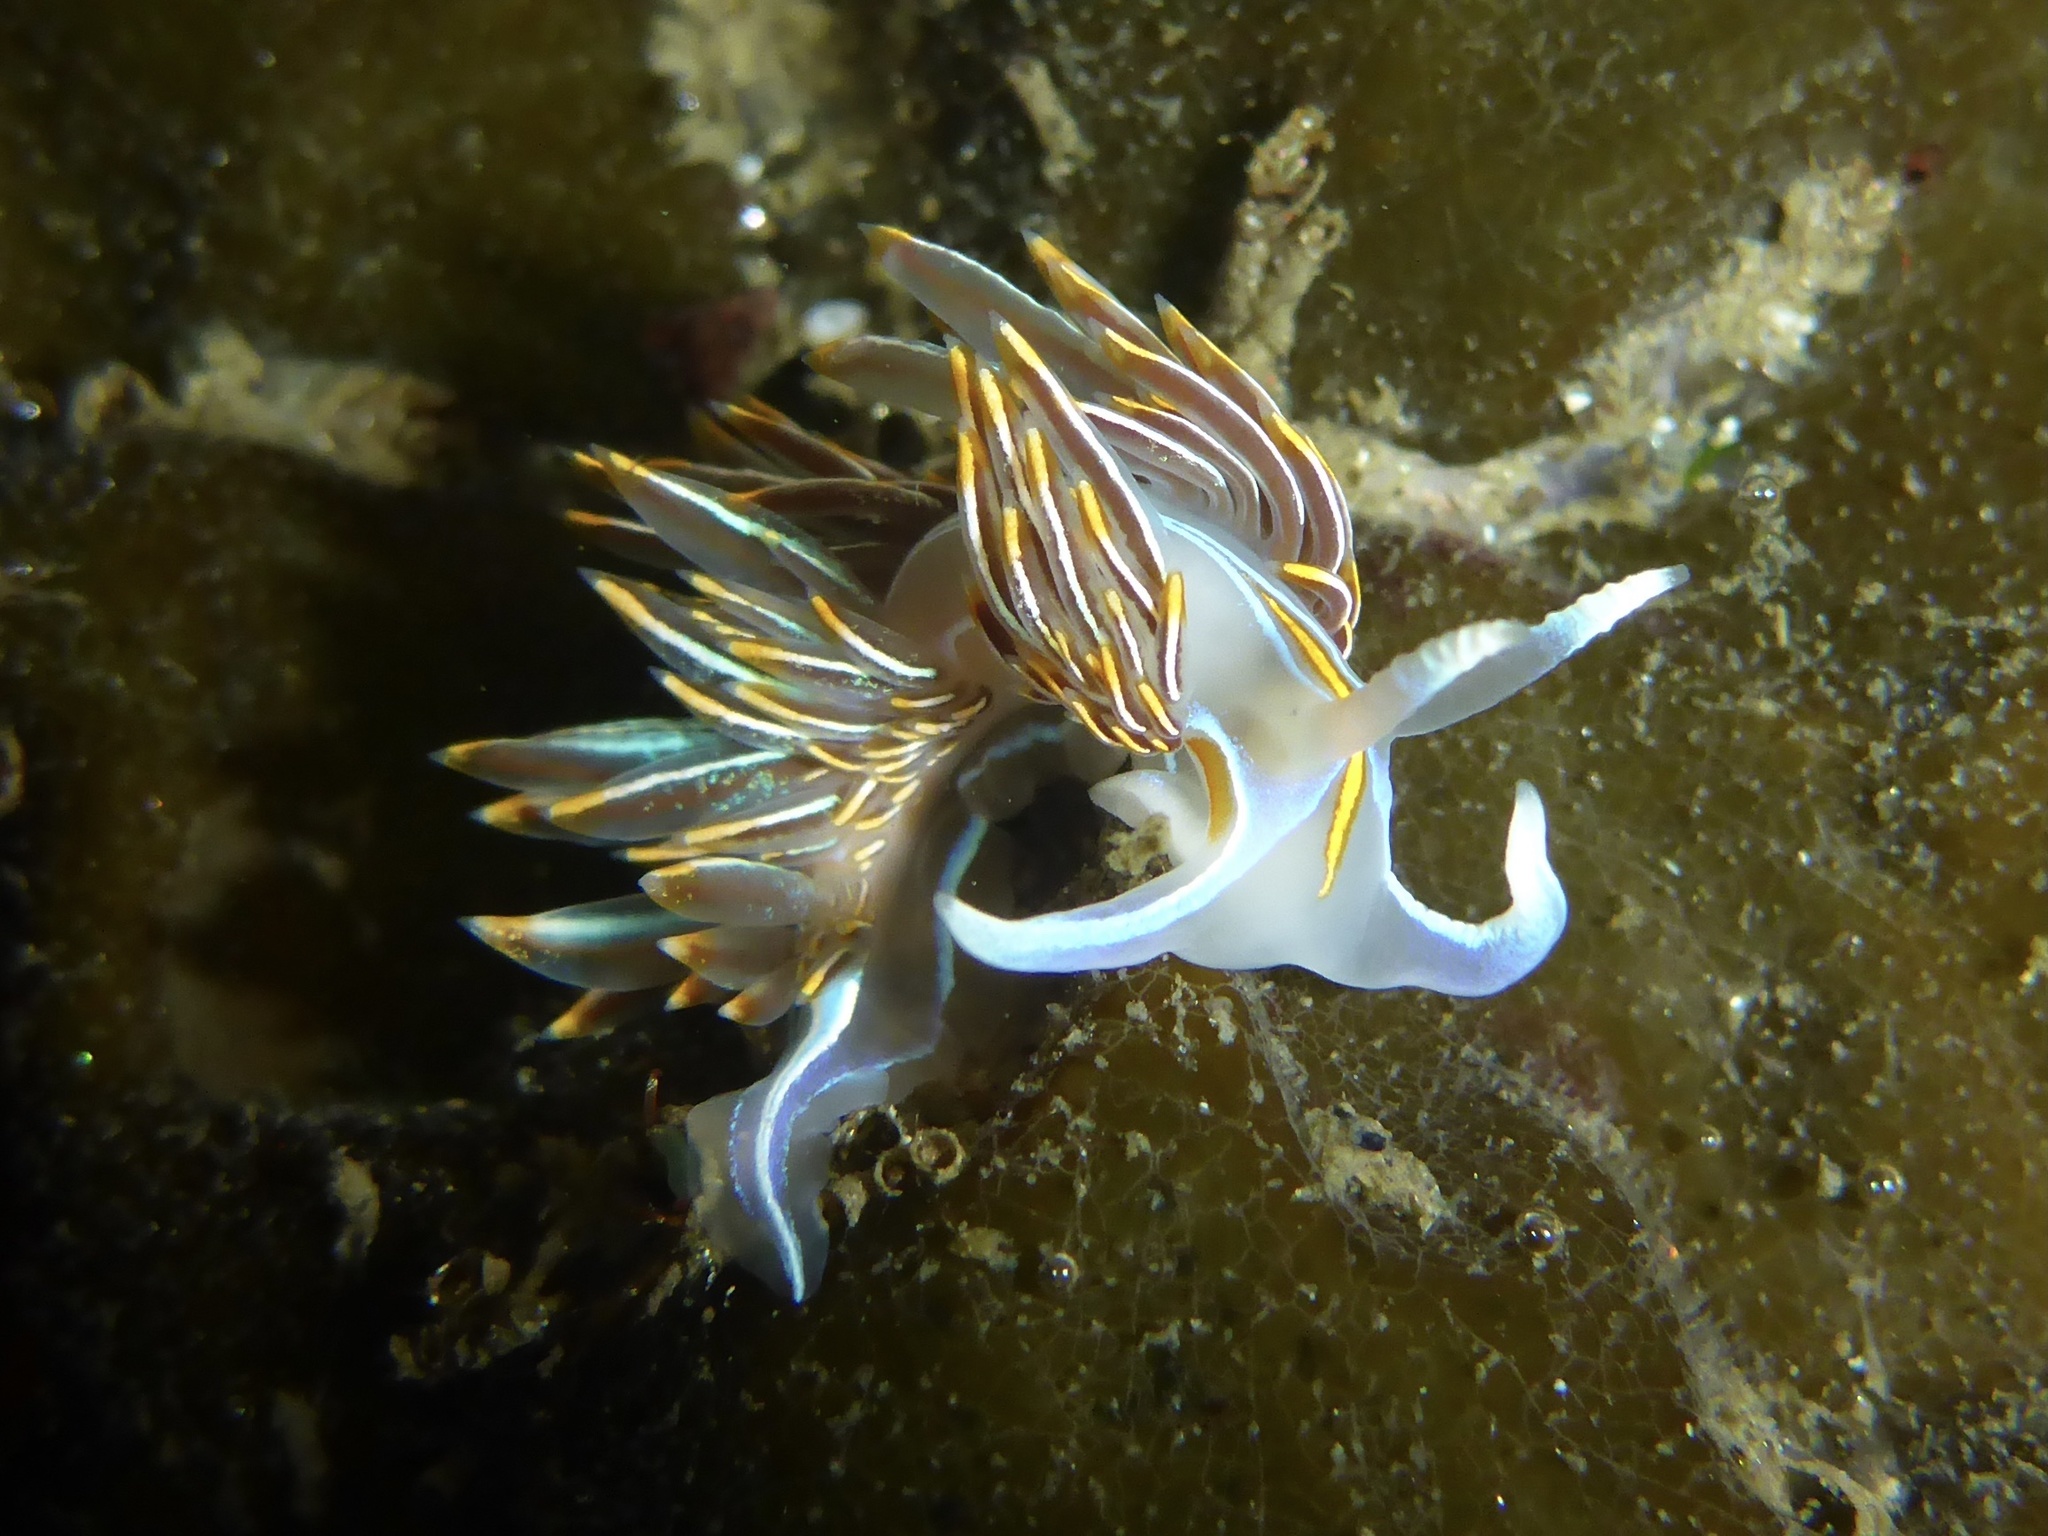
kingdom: Animalia
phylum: Mollusca
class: Gastropoda
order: Nudibranchia
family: Myrrhinidae
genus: Hermissenda
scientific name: Hermissenda crassicornis
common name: Hermissenda
